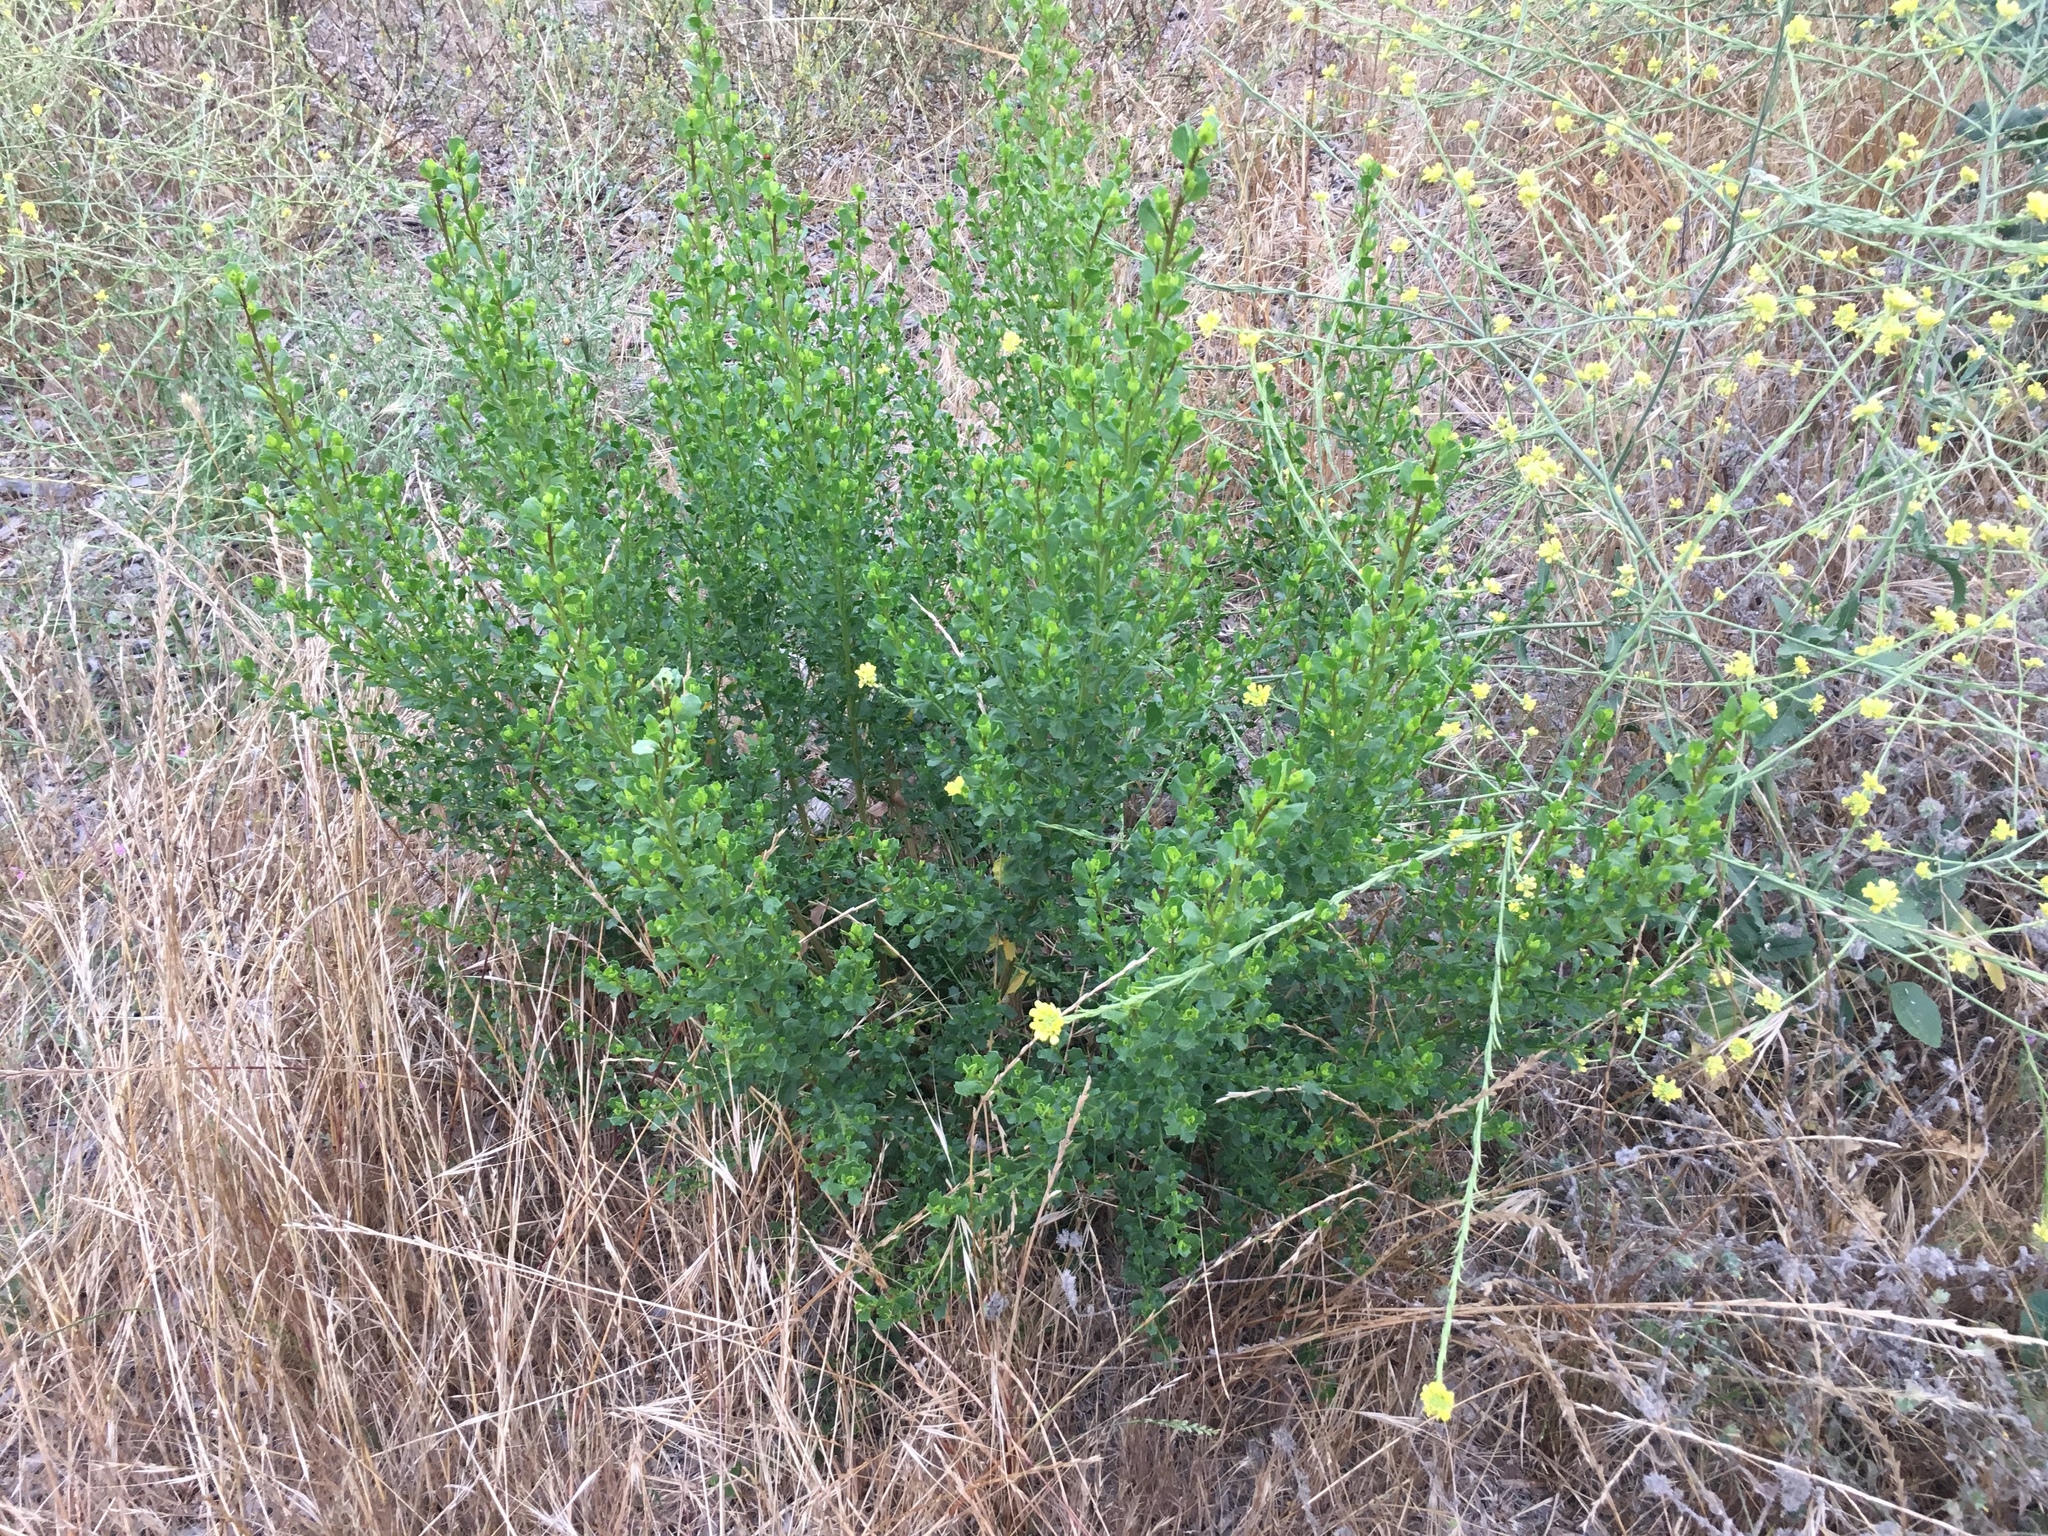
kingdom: Plantae
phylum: Tracheophyta
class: Magnoliopsida
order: Asterales
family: Asteraceae
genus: Baccharis
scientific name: Baccharis pilularis
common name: Coyotebrush
